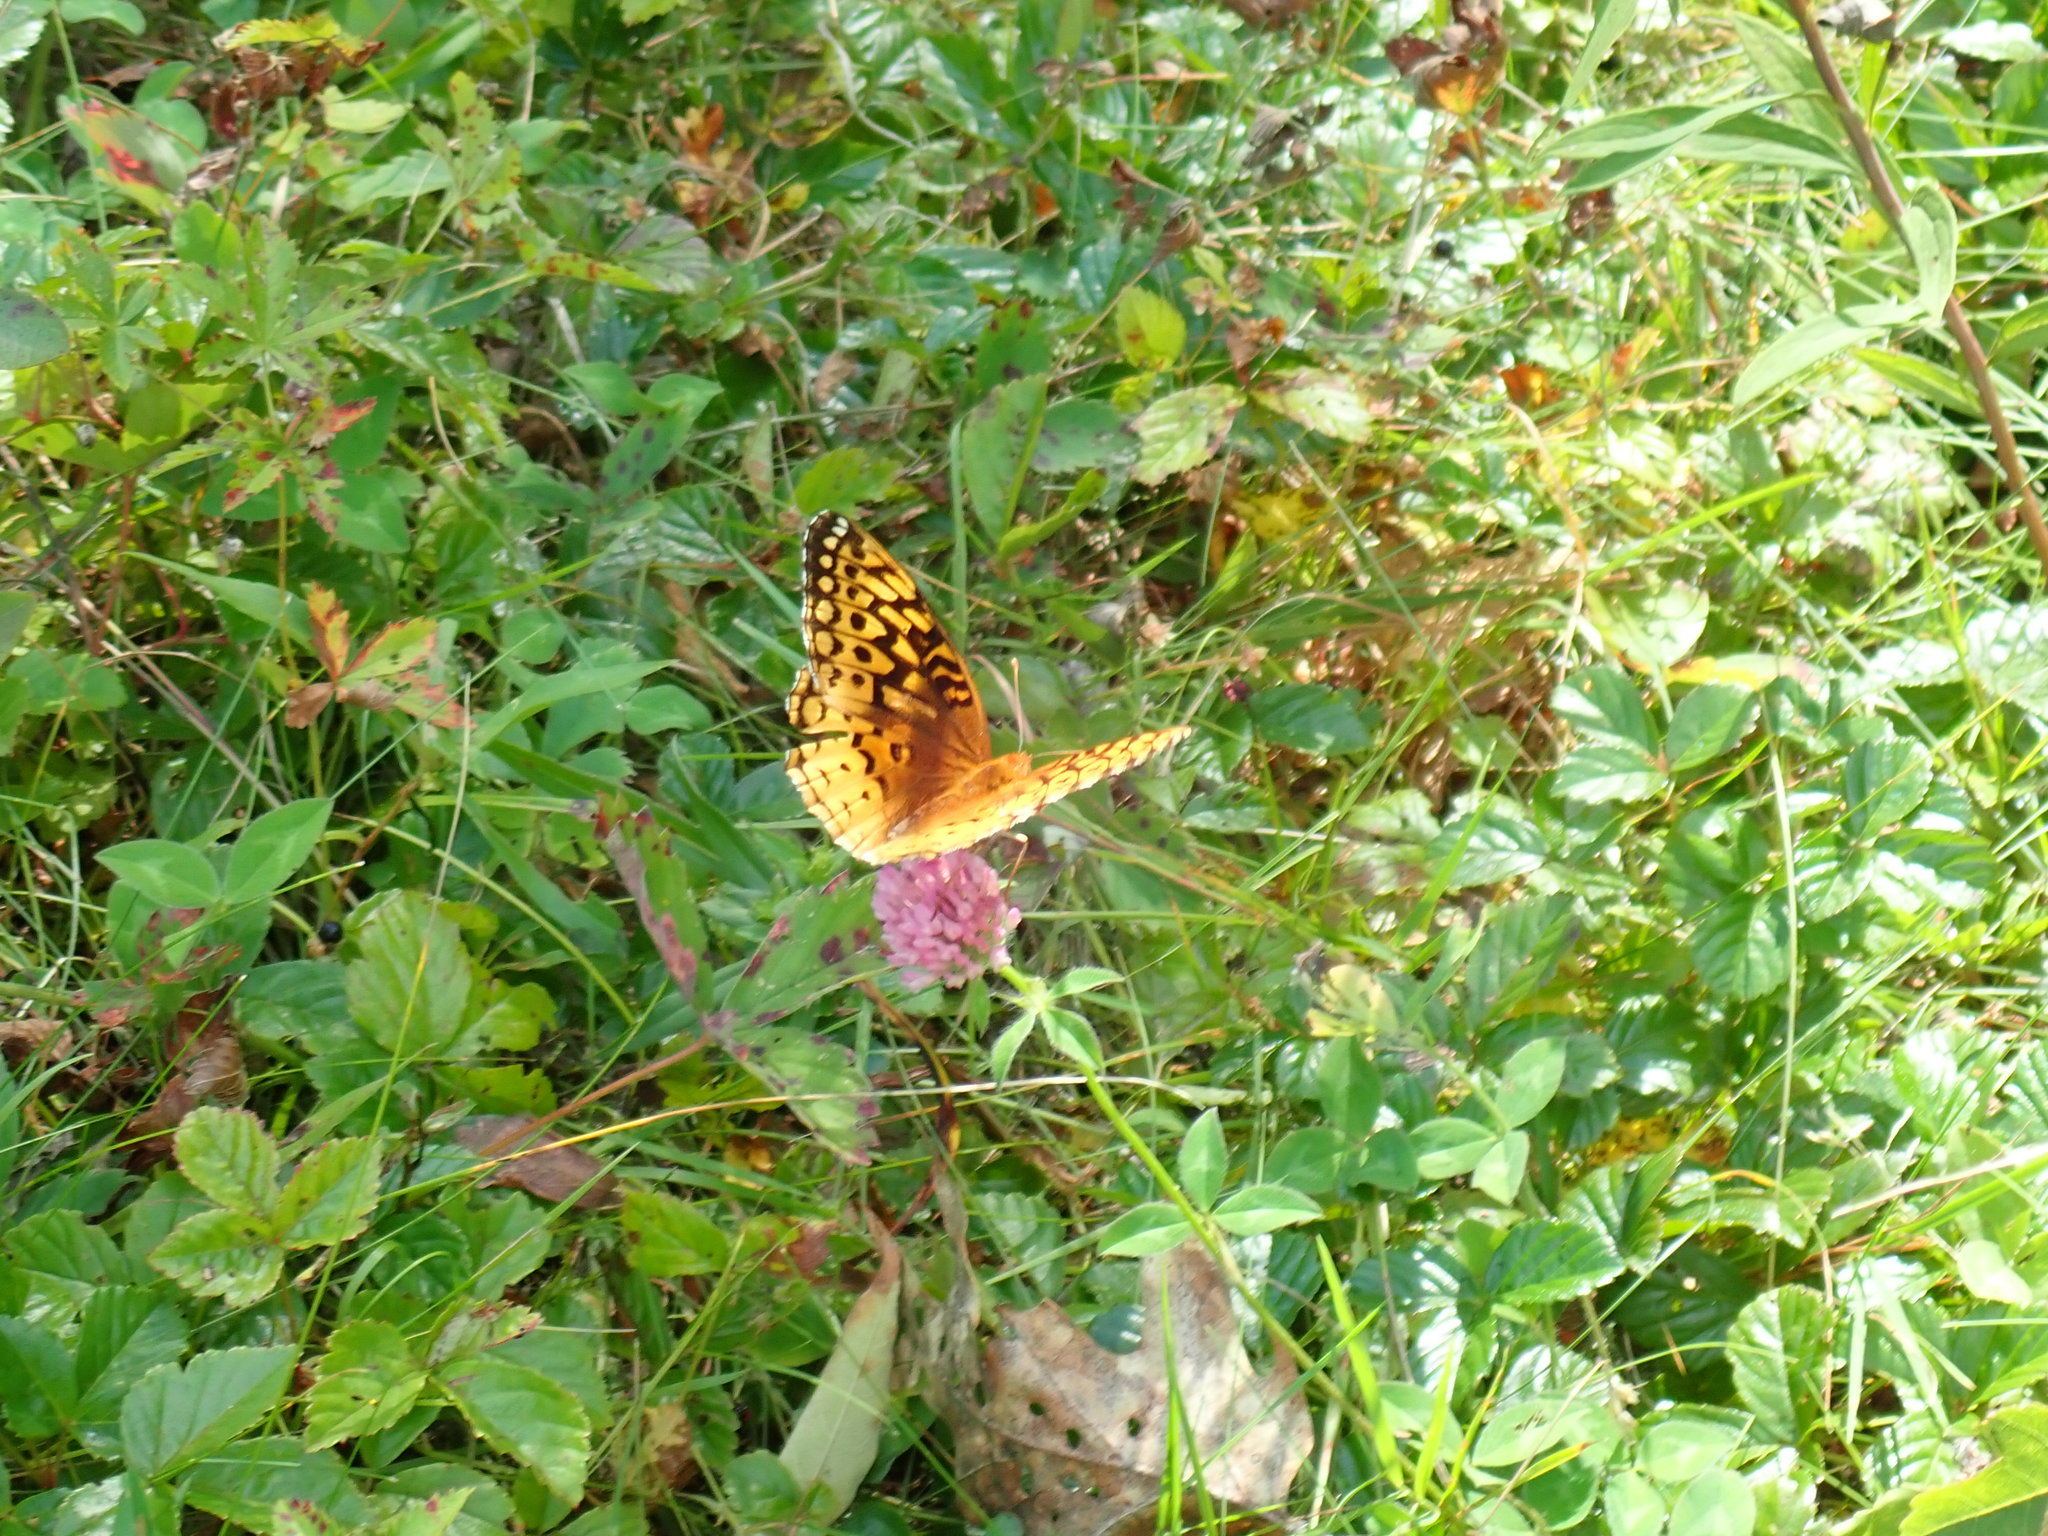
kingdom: Animalia
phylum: Arthropoda
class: Insecta
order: Lepidoptera
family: Nymphalidae
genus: Speyeria
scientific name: Speyeria cybele
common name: Great spangled fritillary
